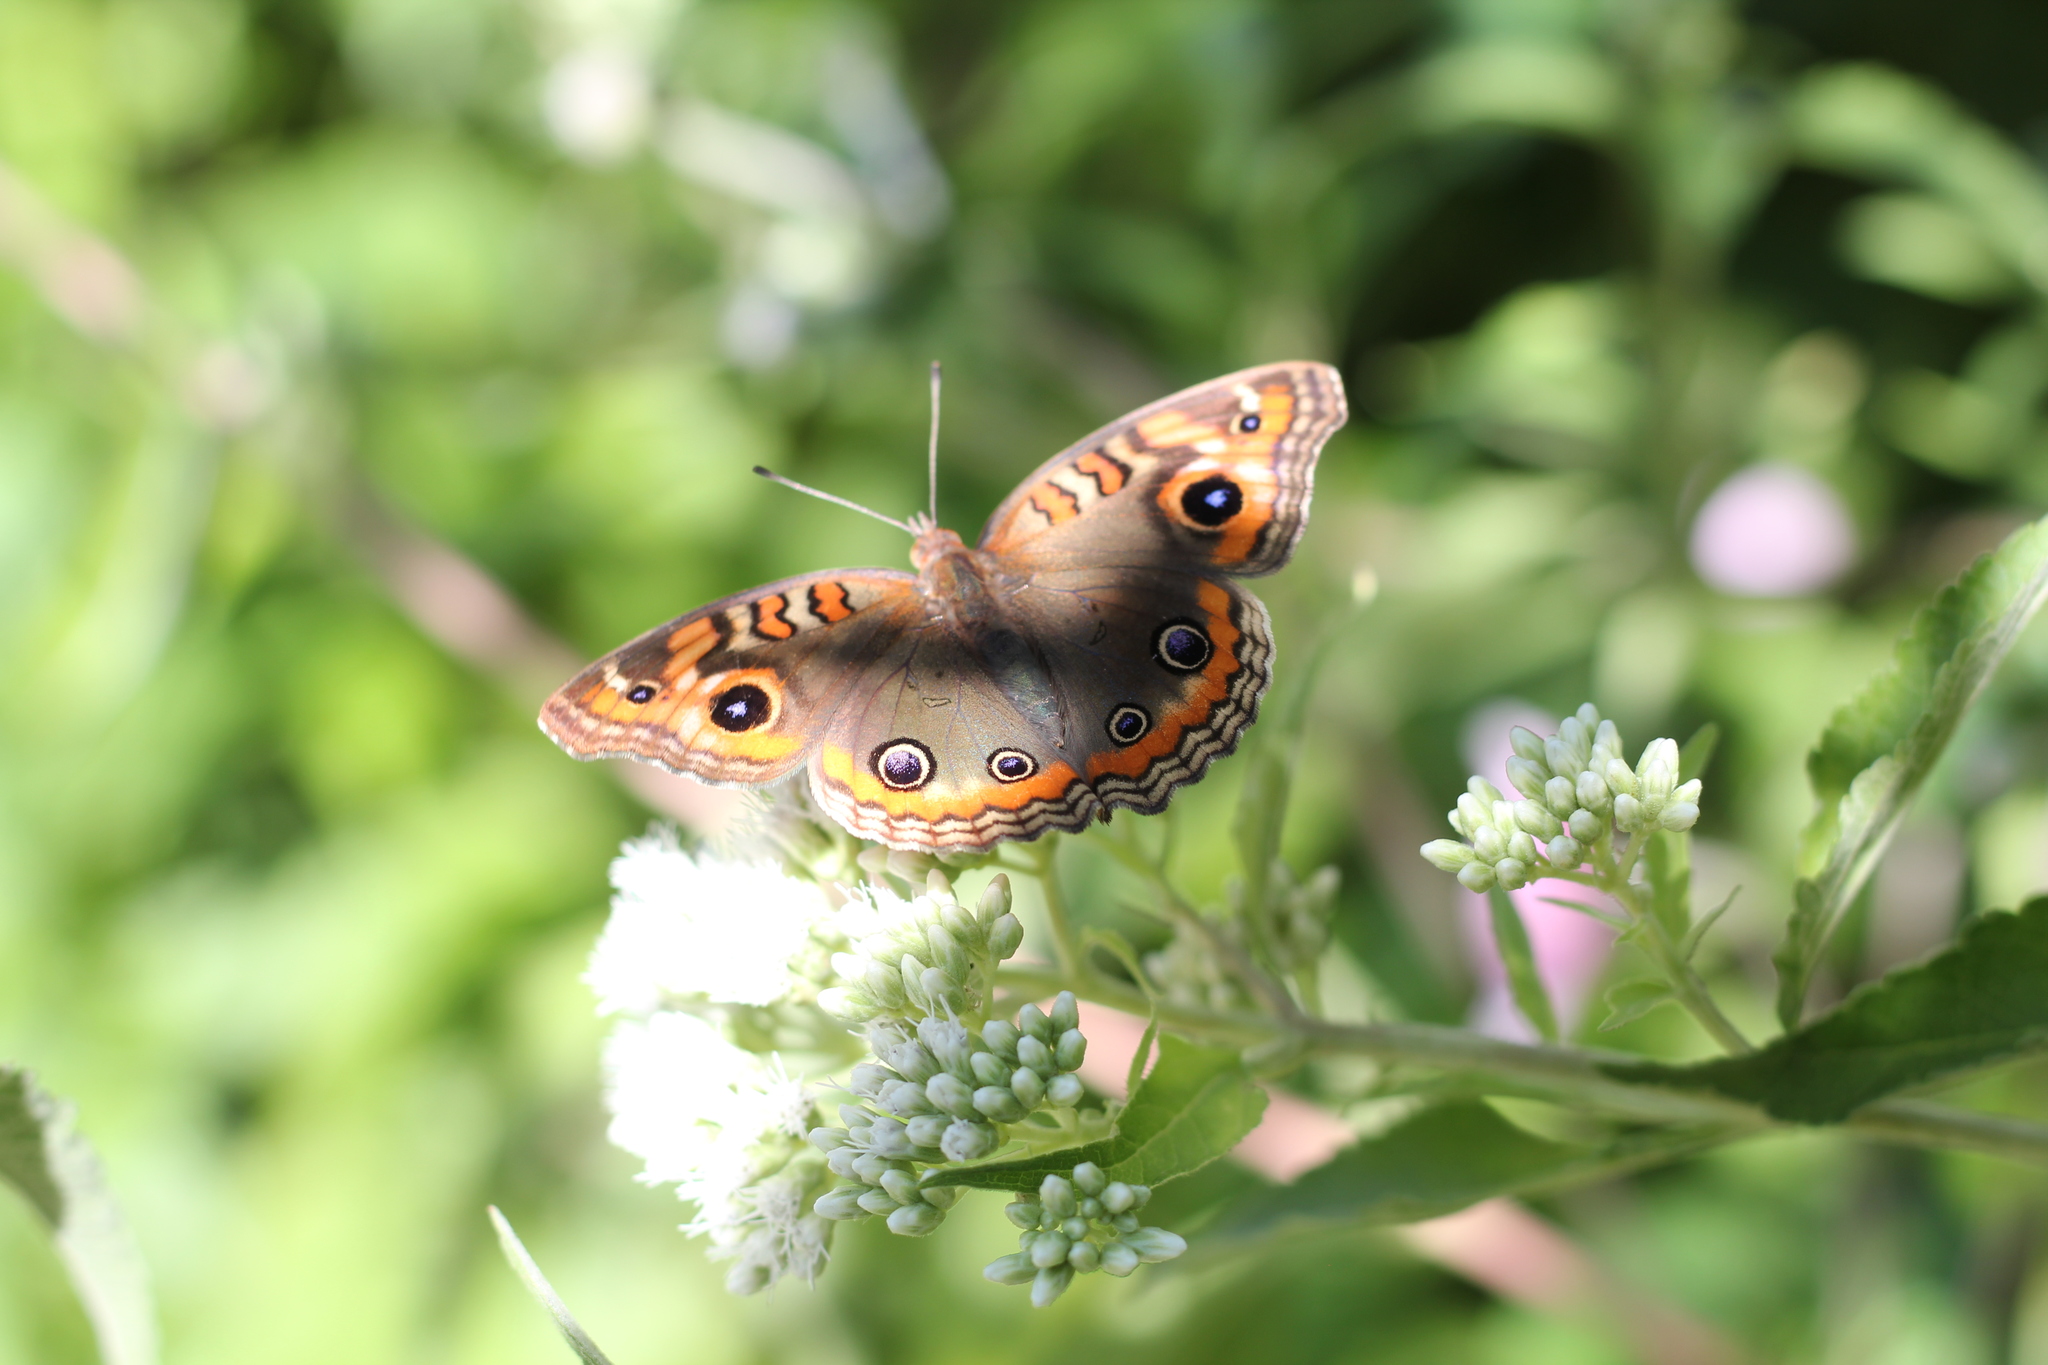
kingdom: Animalia
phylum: Arthropoda
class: Insecta
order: Lepidoptera
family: Nymphalidae
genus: Junonia
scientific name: Junonia lavinia
